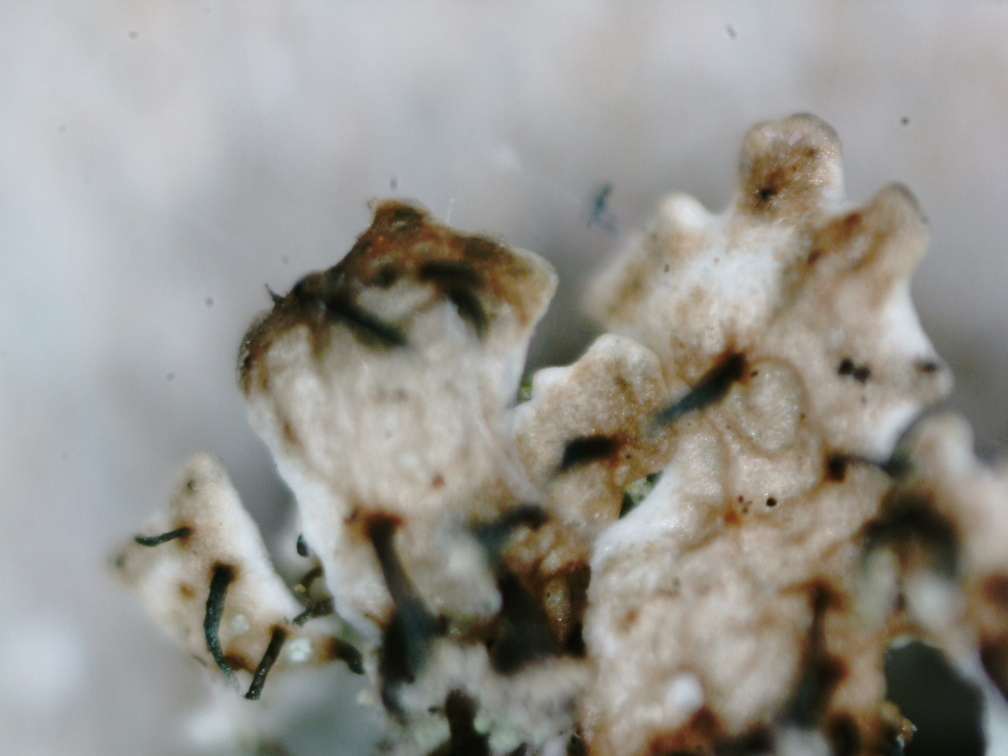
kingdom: Fungi
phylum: Ascomycota
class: Lecanoromycetes
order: Lecanorales
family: Parmeliaceae
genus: Imshaugia
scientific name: Imshaugia aleurites
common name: Salted starburst lichen
